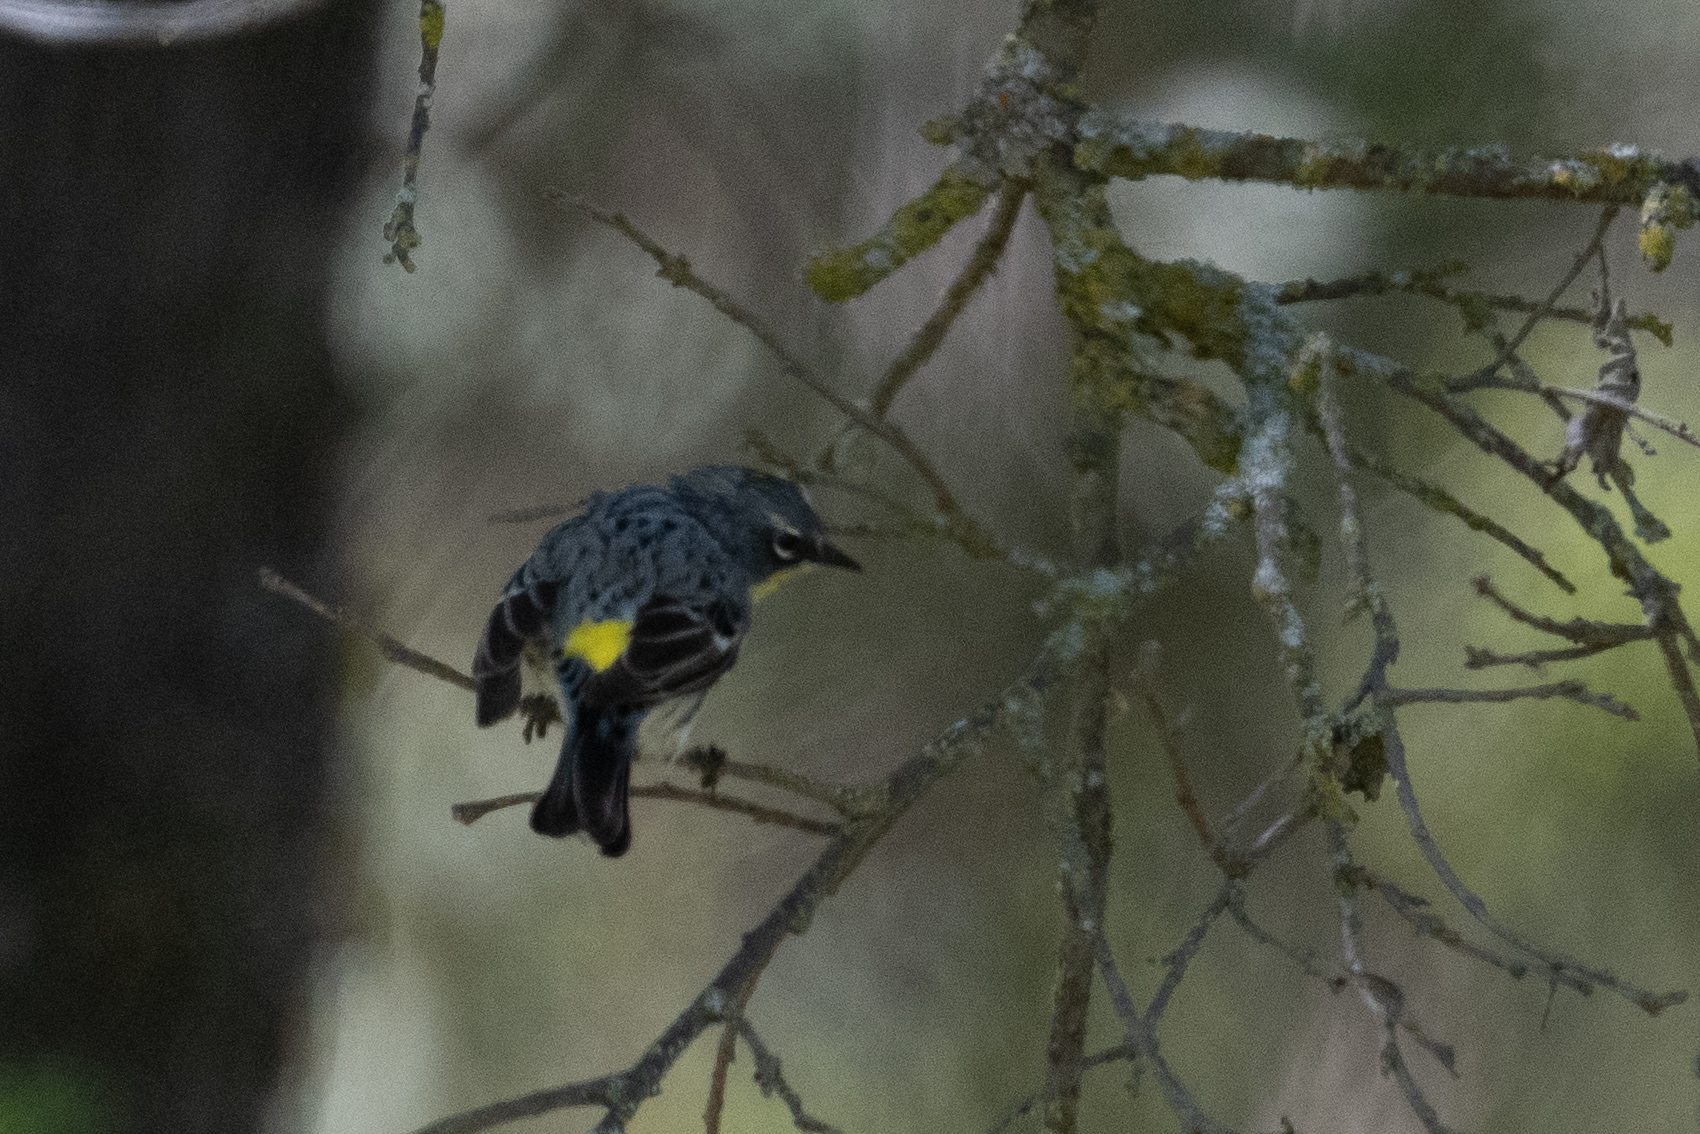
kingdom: Animalia
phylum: Chordata
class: Aves
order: Passeriformes
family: Parulidae
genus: Setophaga
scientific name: Setophaga coronata
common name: Myrtle warbler
